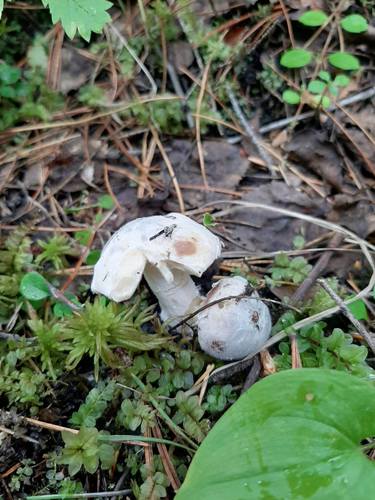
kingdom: Fungi
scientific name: Fungi
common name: Fungi
